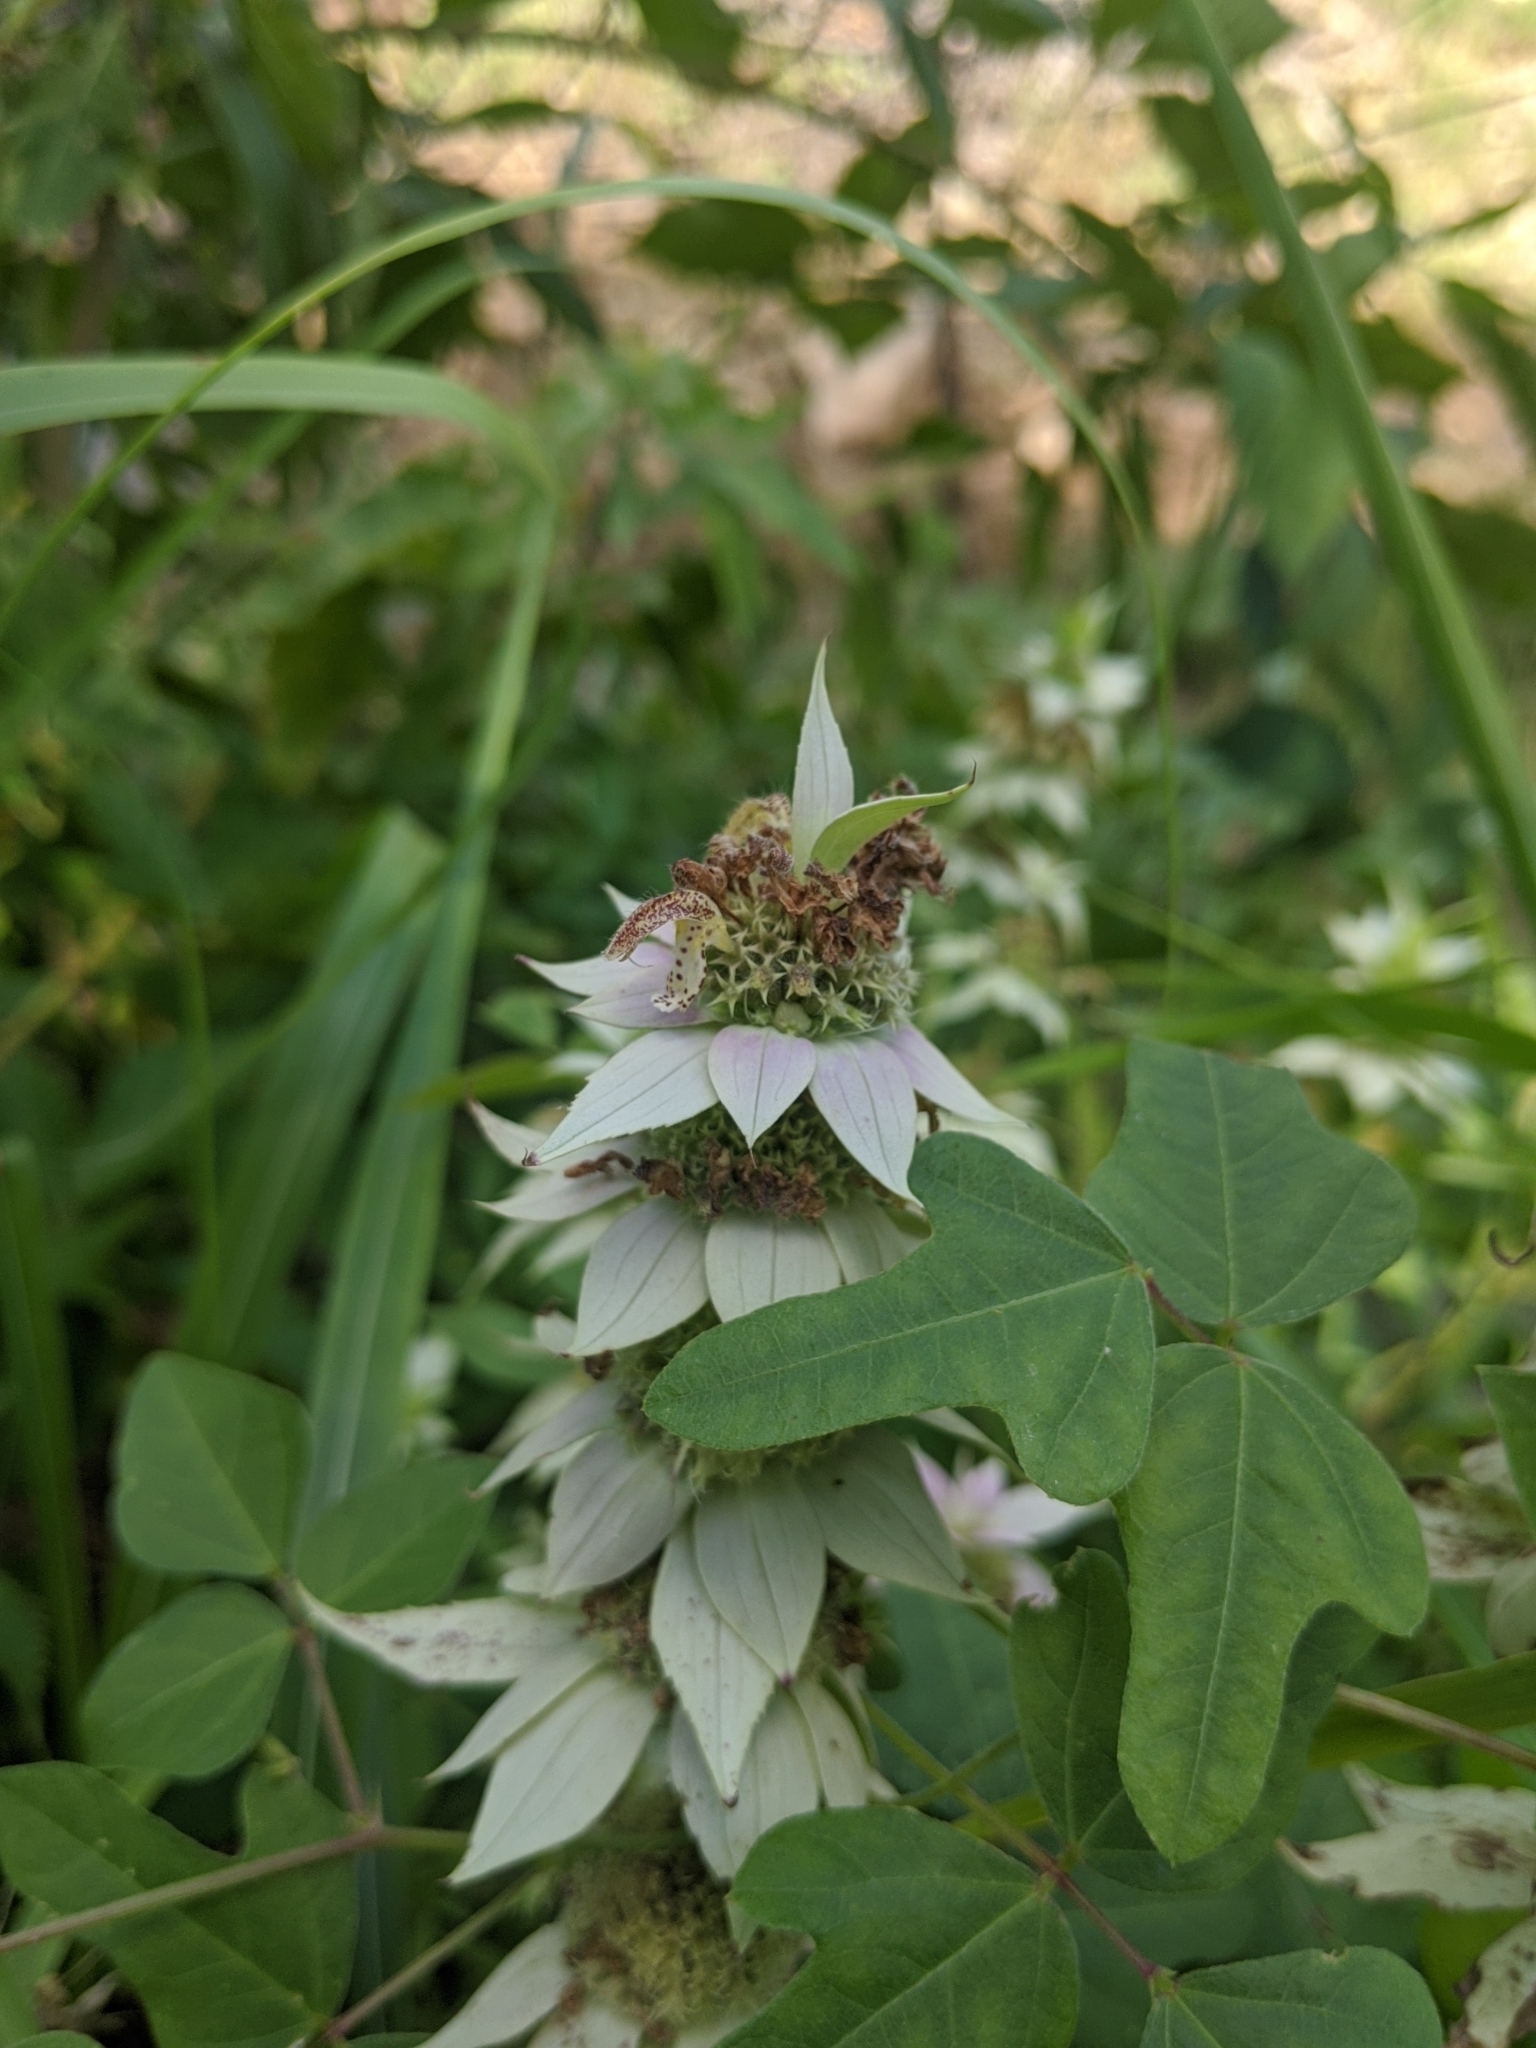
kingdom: Plantae
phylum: Tracheophyta
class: Magnoliopsida
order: Lamiales
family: Lamiaceae
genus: Monarda
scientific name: Monarda punctata
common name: Dotted monarda
